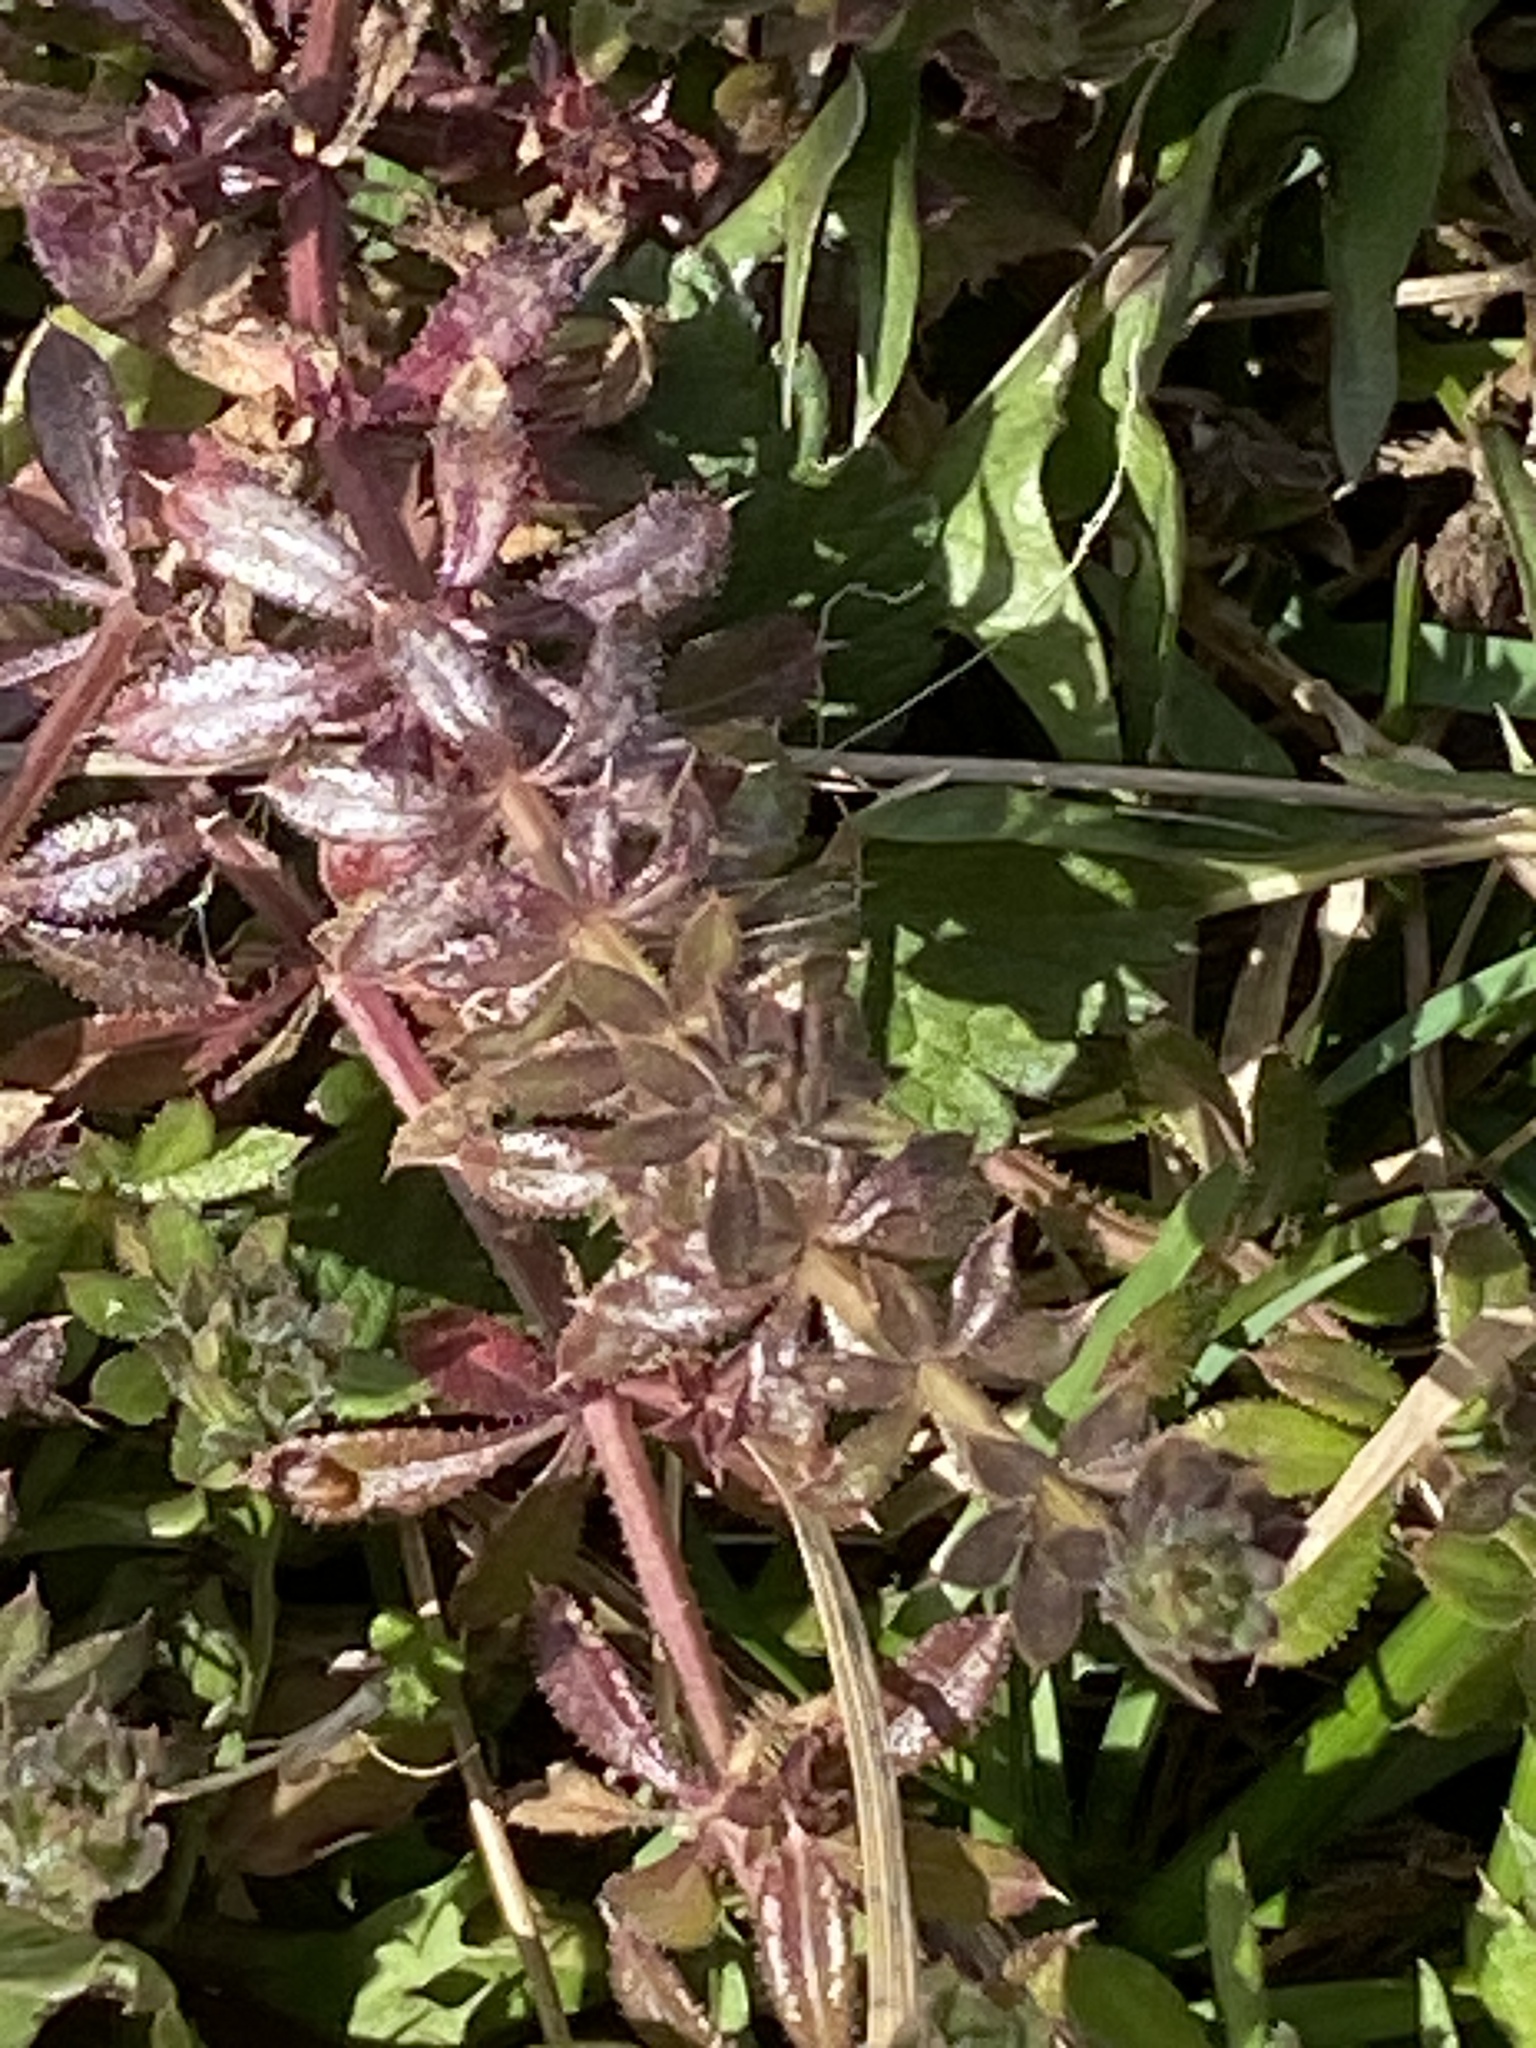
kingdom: Plantae
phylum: Tracheophyta
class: Magnoliopsida
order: Gentianales
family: Rubiaceae
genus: Galium
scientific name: Galium aparine
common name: Cleavers
